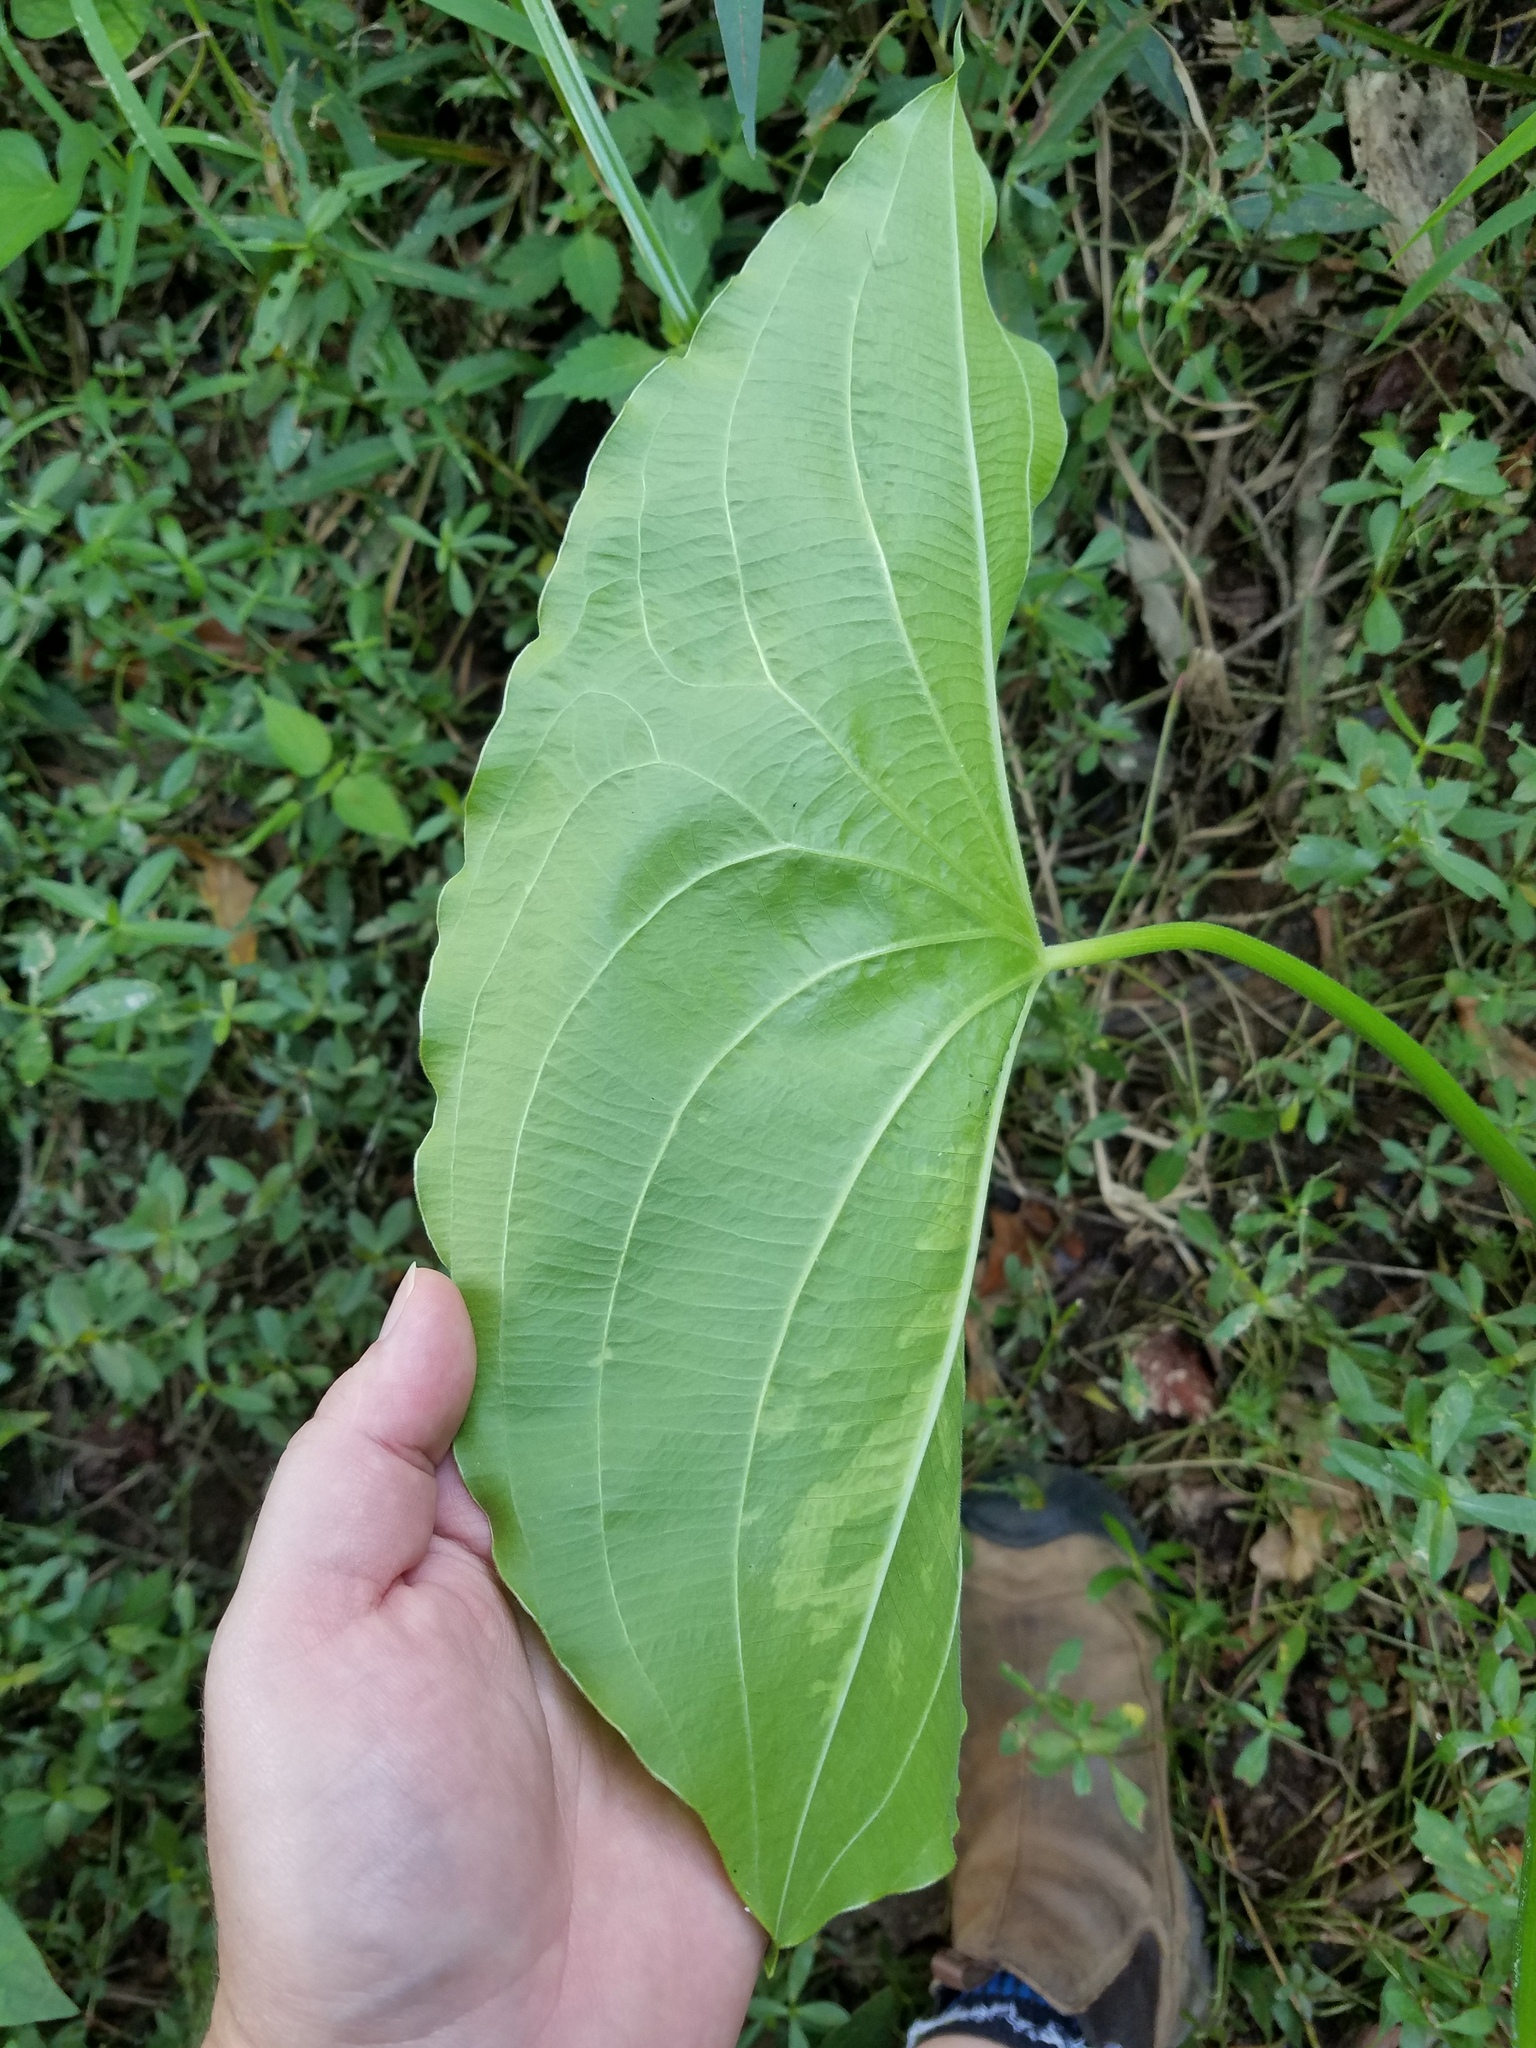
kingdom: Plantae
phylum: Tracheophyta
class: Liliopsida
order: Alismatales
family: Alismataceae
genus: Sagittaria
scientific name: Sagittaria latifolia
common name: Duck-potato
